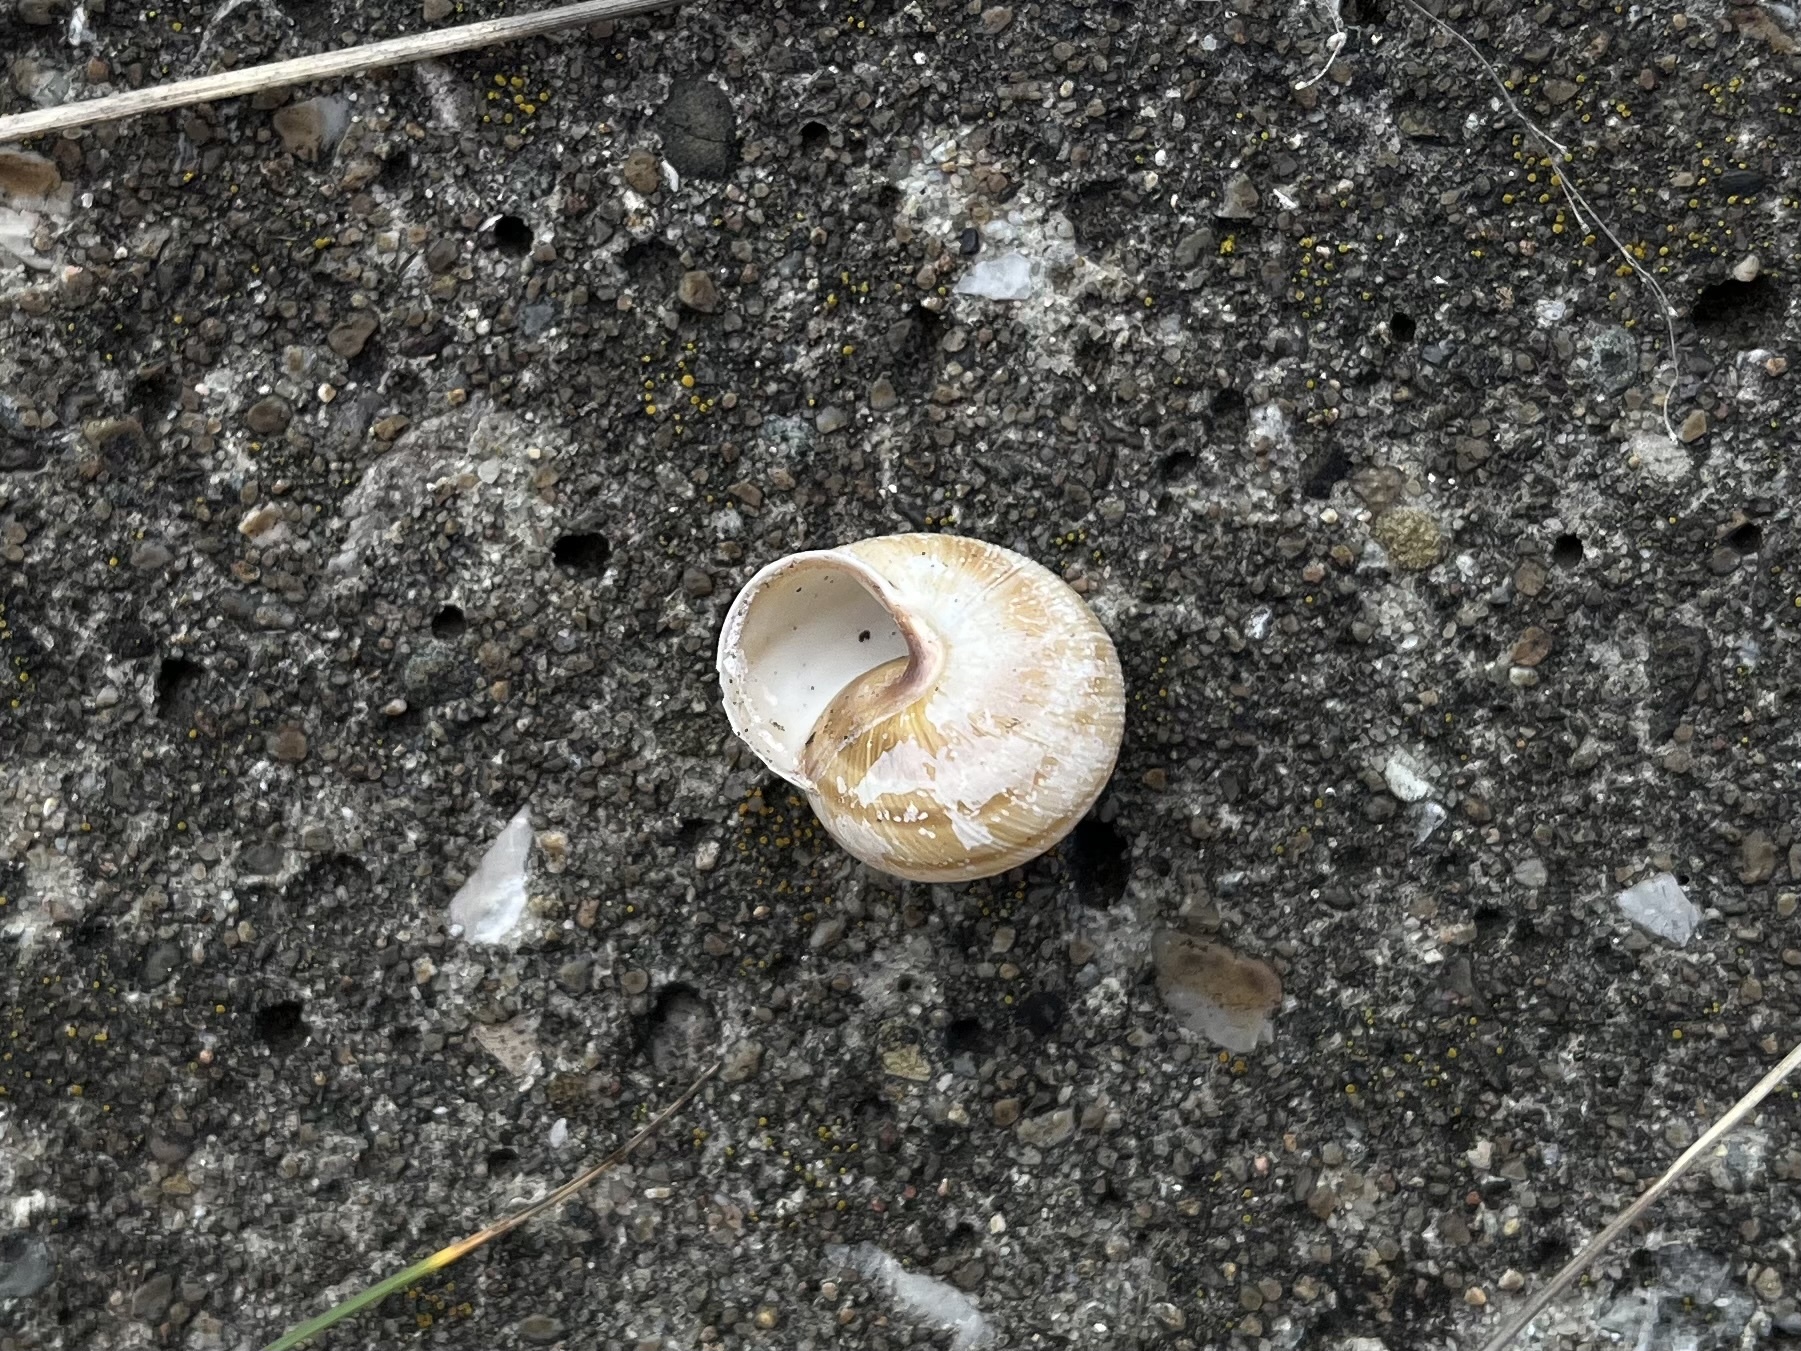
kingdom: Animalia
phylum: Mollusca
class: Gastropoda
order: Stylommatophora
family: Helicidae
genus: Caucasotachea
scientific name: Caucasotachea vindobonensis
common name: European helicid land snail
